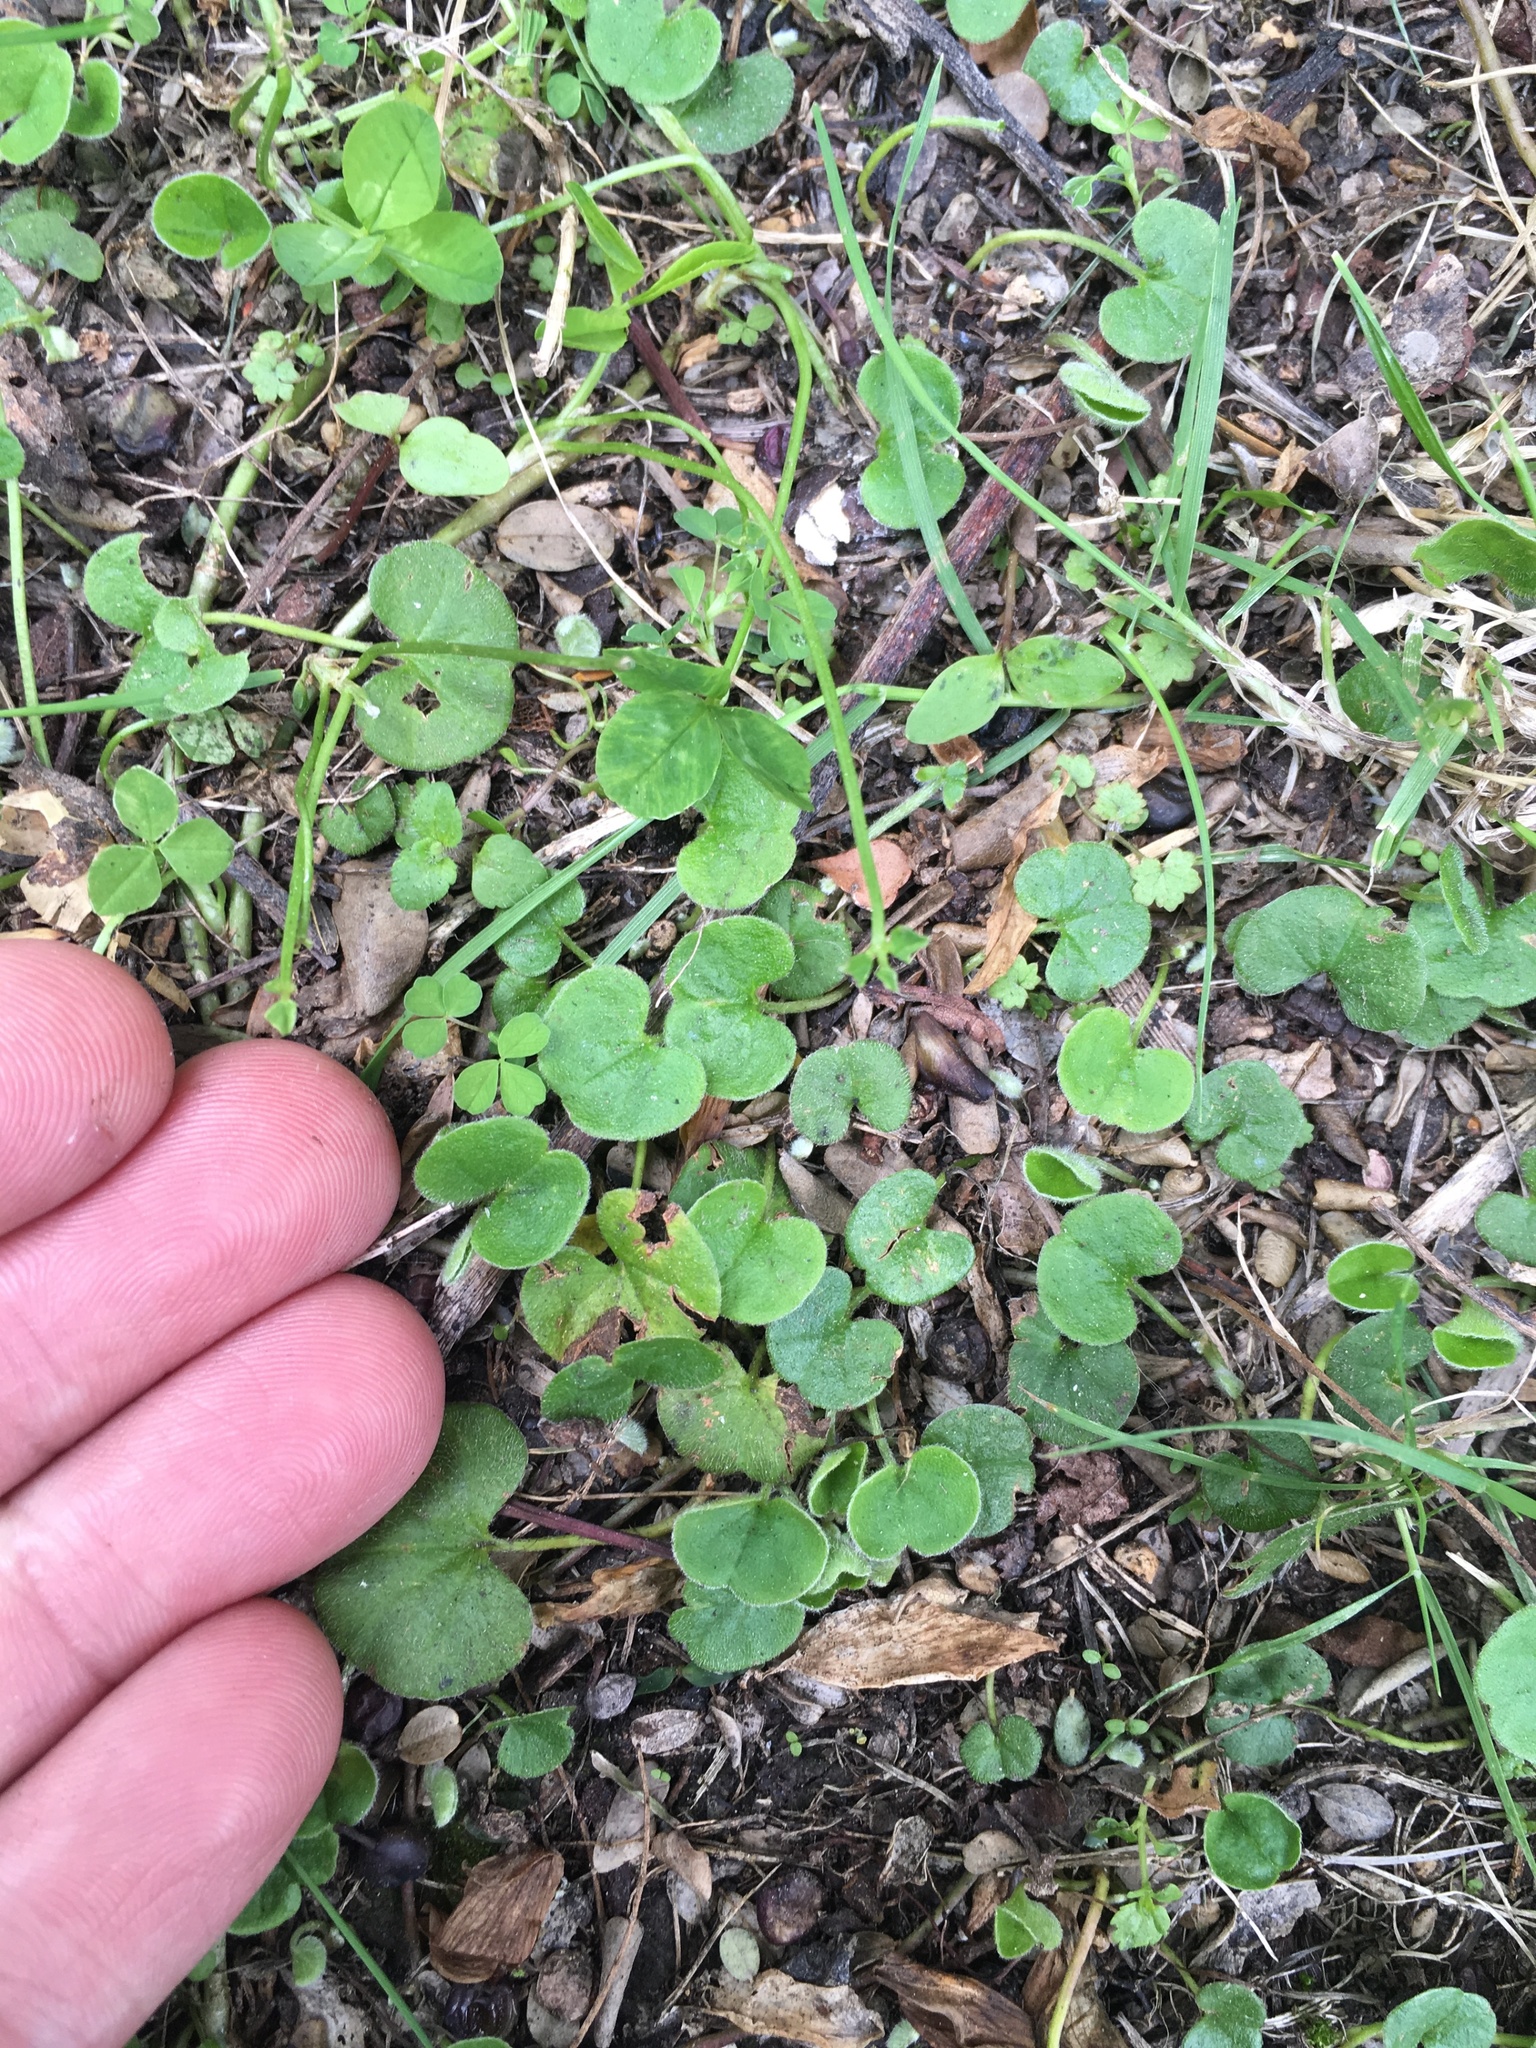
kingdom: Plantae
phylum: Tracheophyta
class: Magnoliopsida
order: Solanales
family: Convolvulaceae
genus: Dichondra
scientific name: Dichondra repens
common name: Kidneyweed
